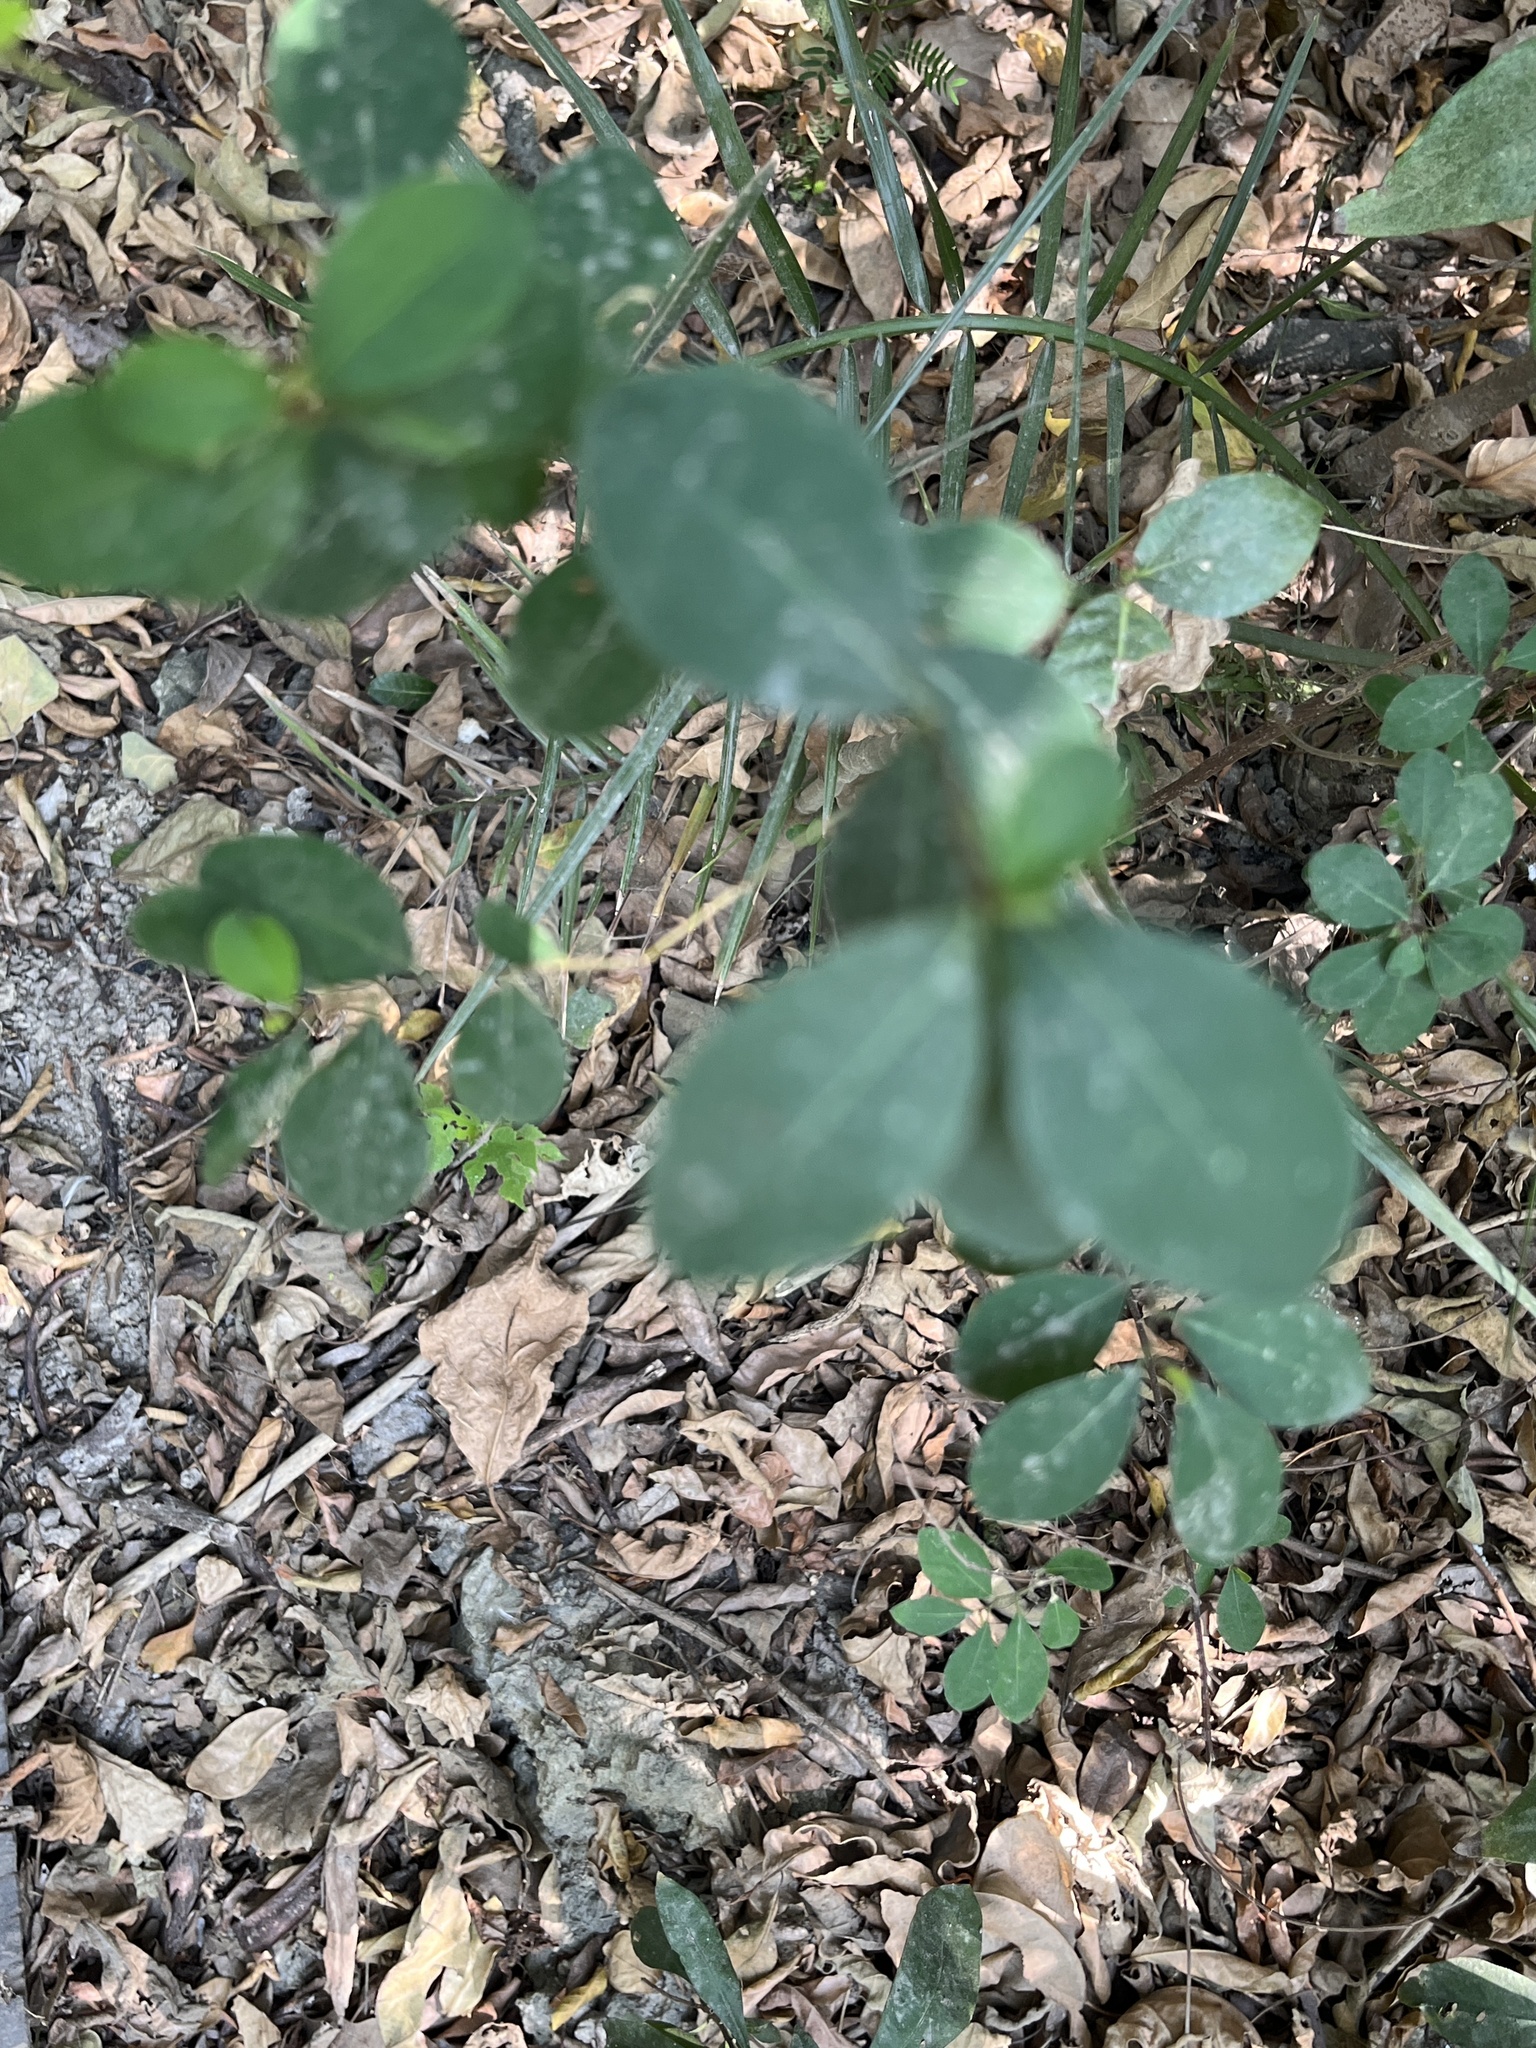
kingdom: Plantae
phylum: Tracheophyta
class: Magnoliopsida
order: Malpighiales
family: Salicaceae
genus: Scolopia
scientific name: Scolopia oldhamii
